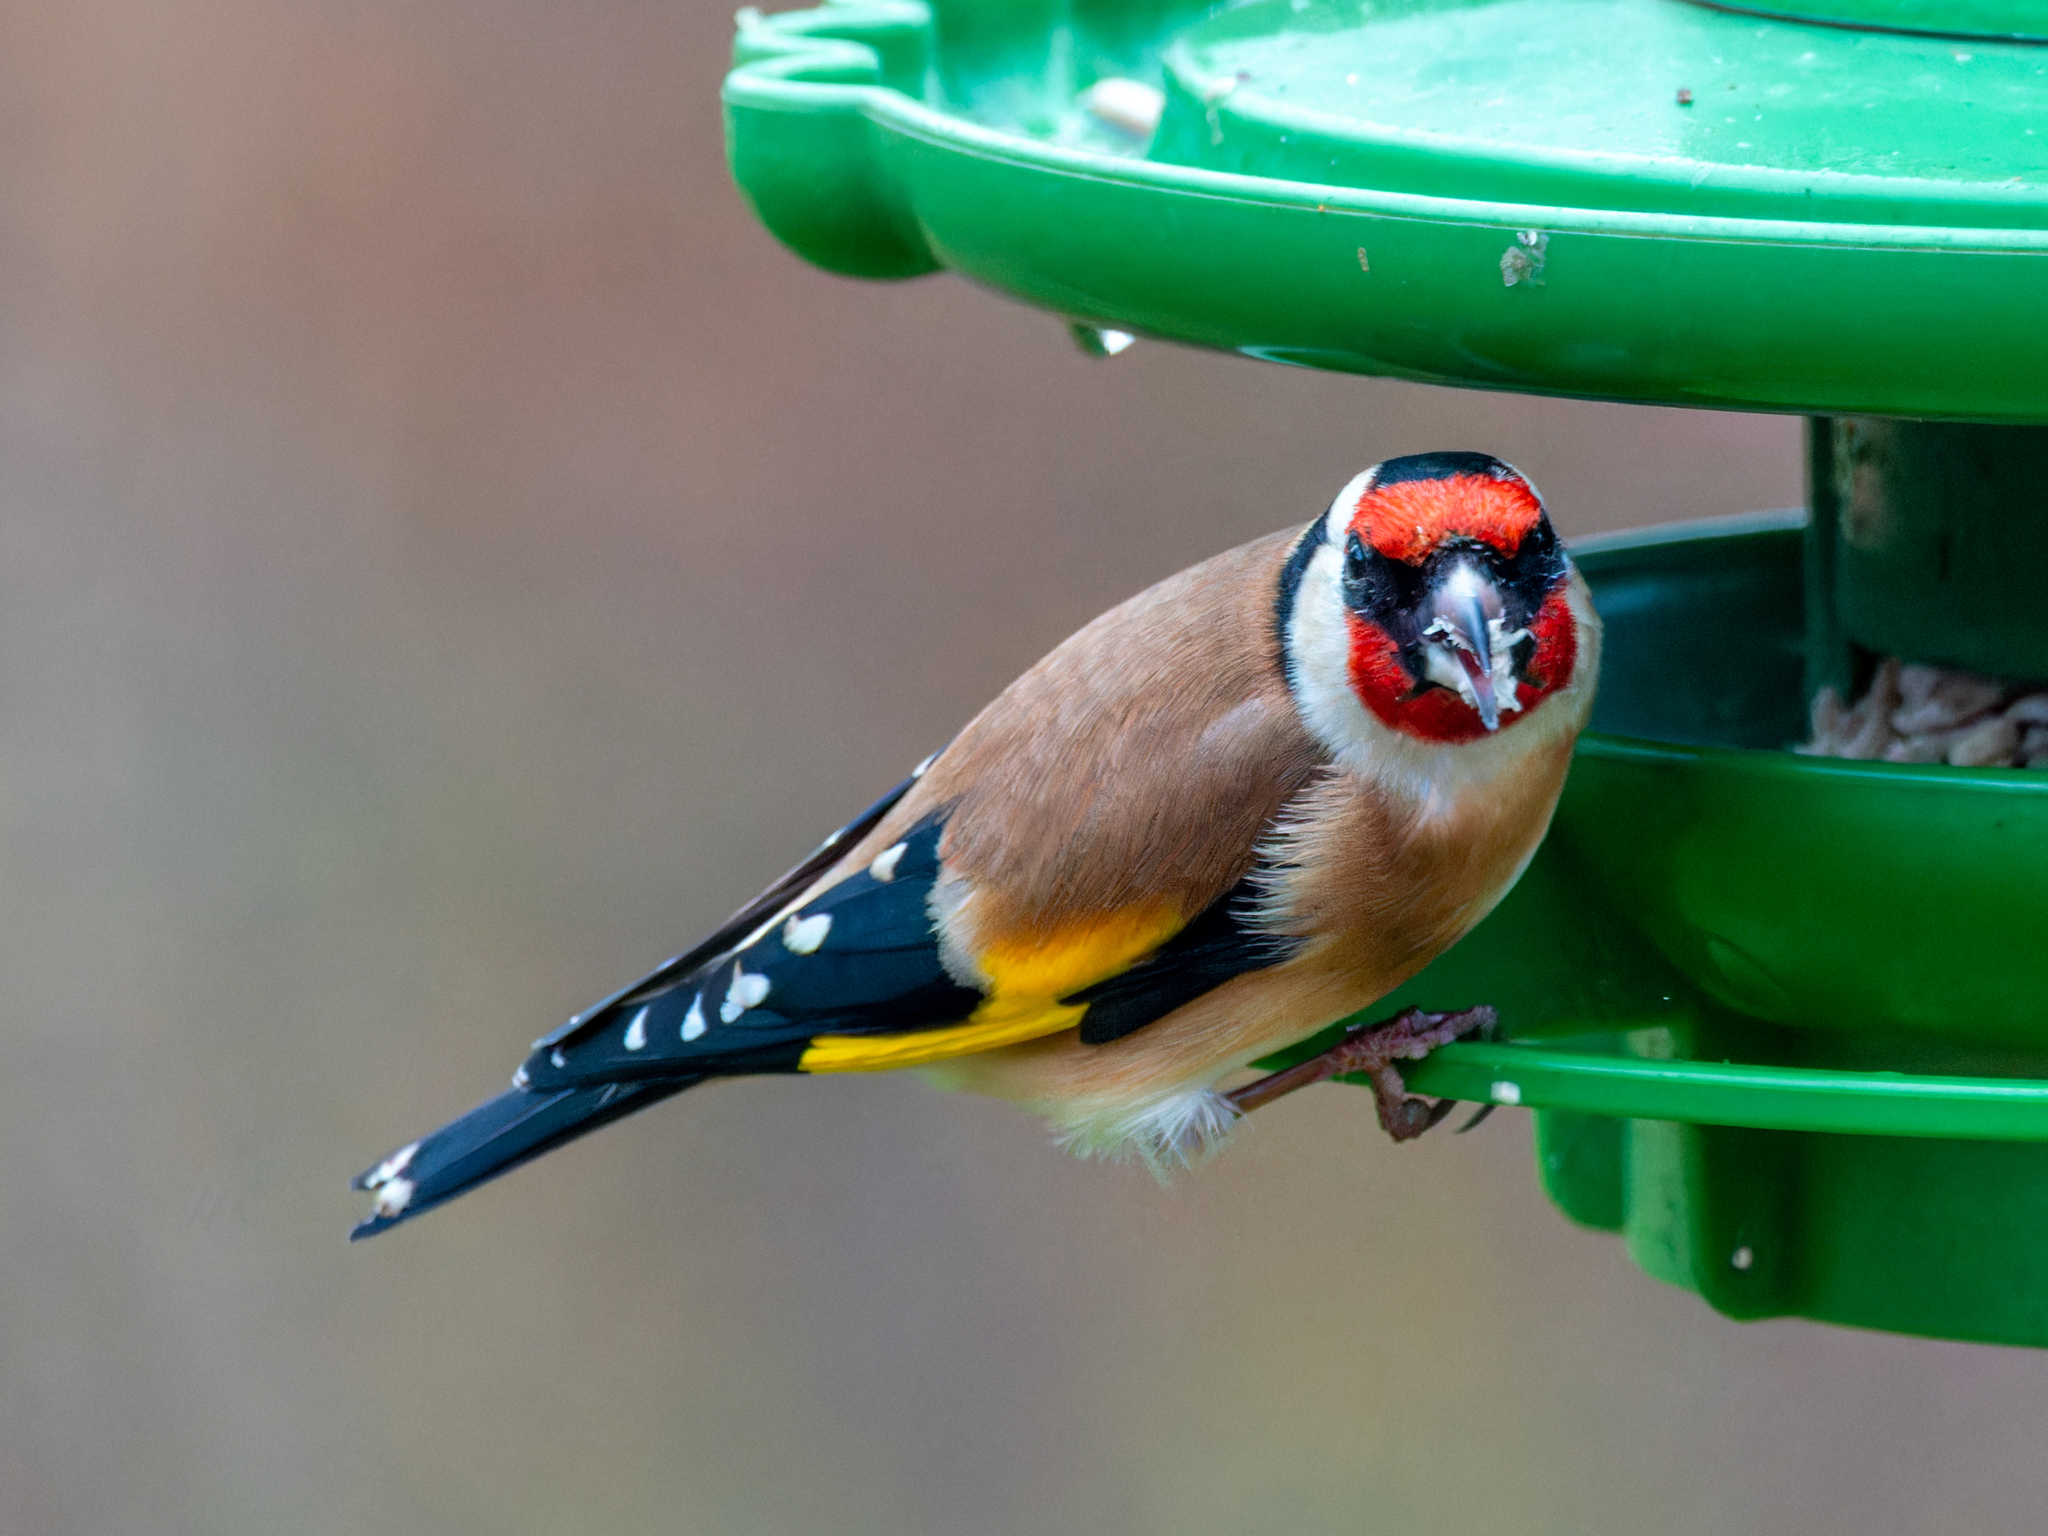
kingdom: Animalia
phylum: Chordata
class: Aves
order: Passeriformes
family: Fringillidae
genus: Carduelis
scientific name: Carduelis carduelis
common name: European goldfinch
